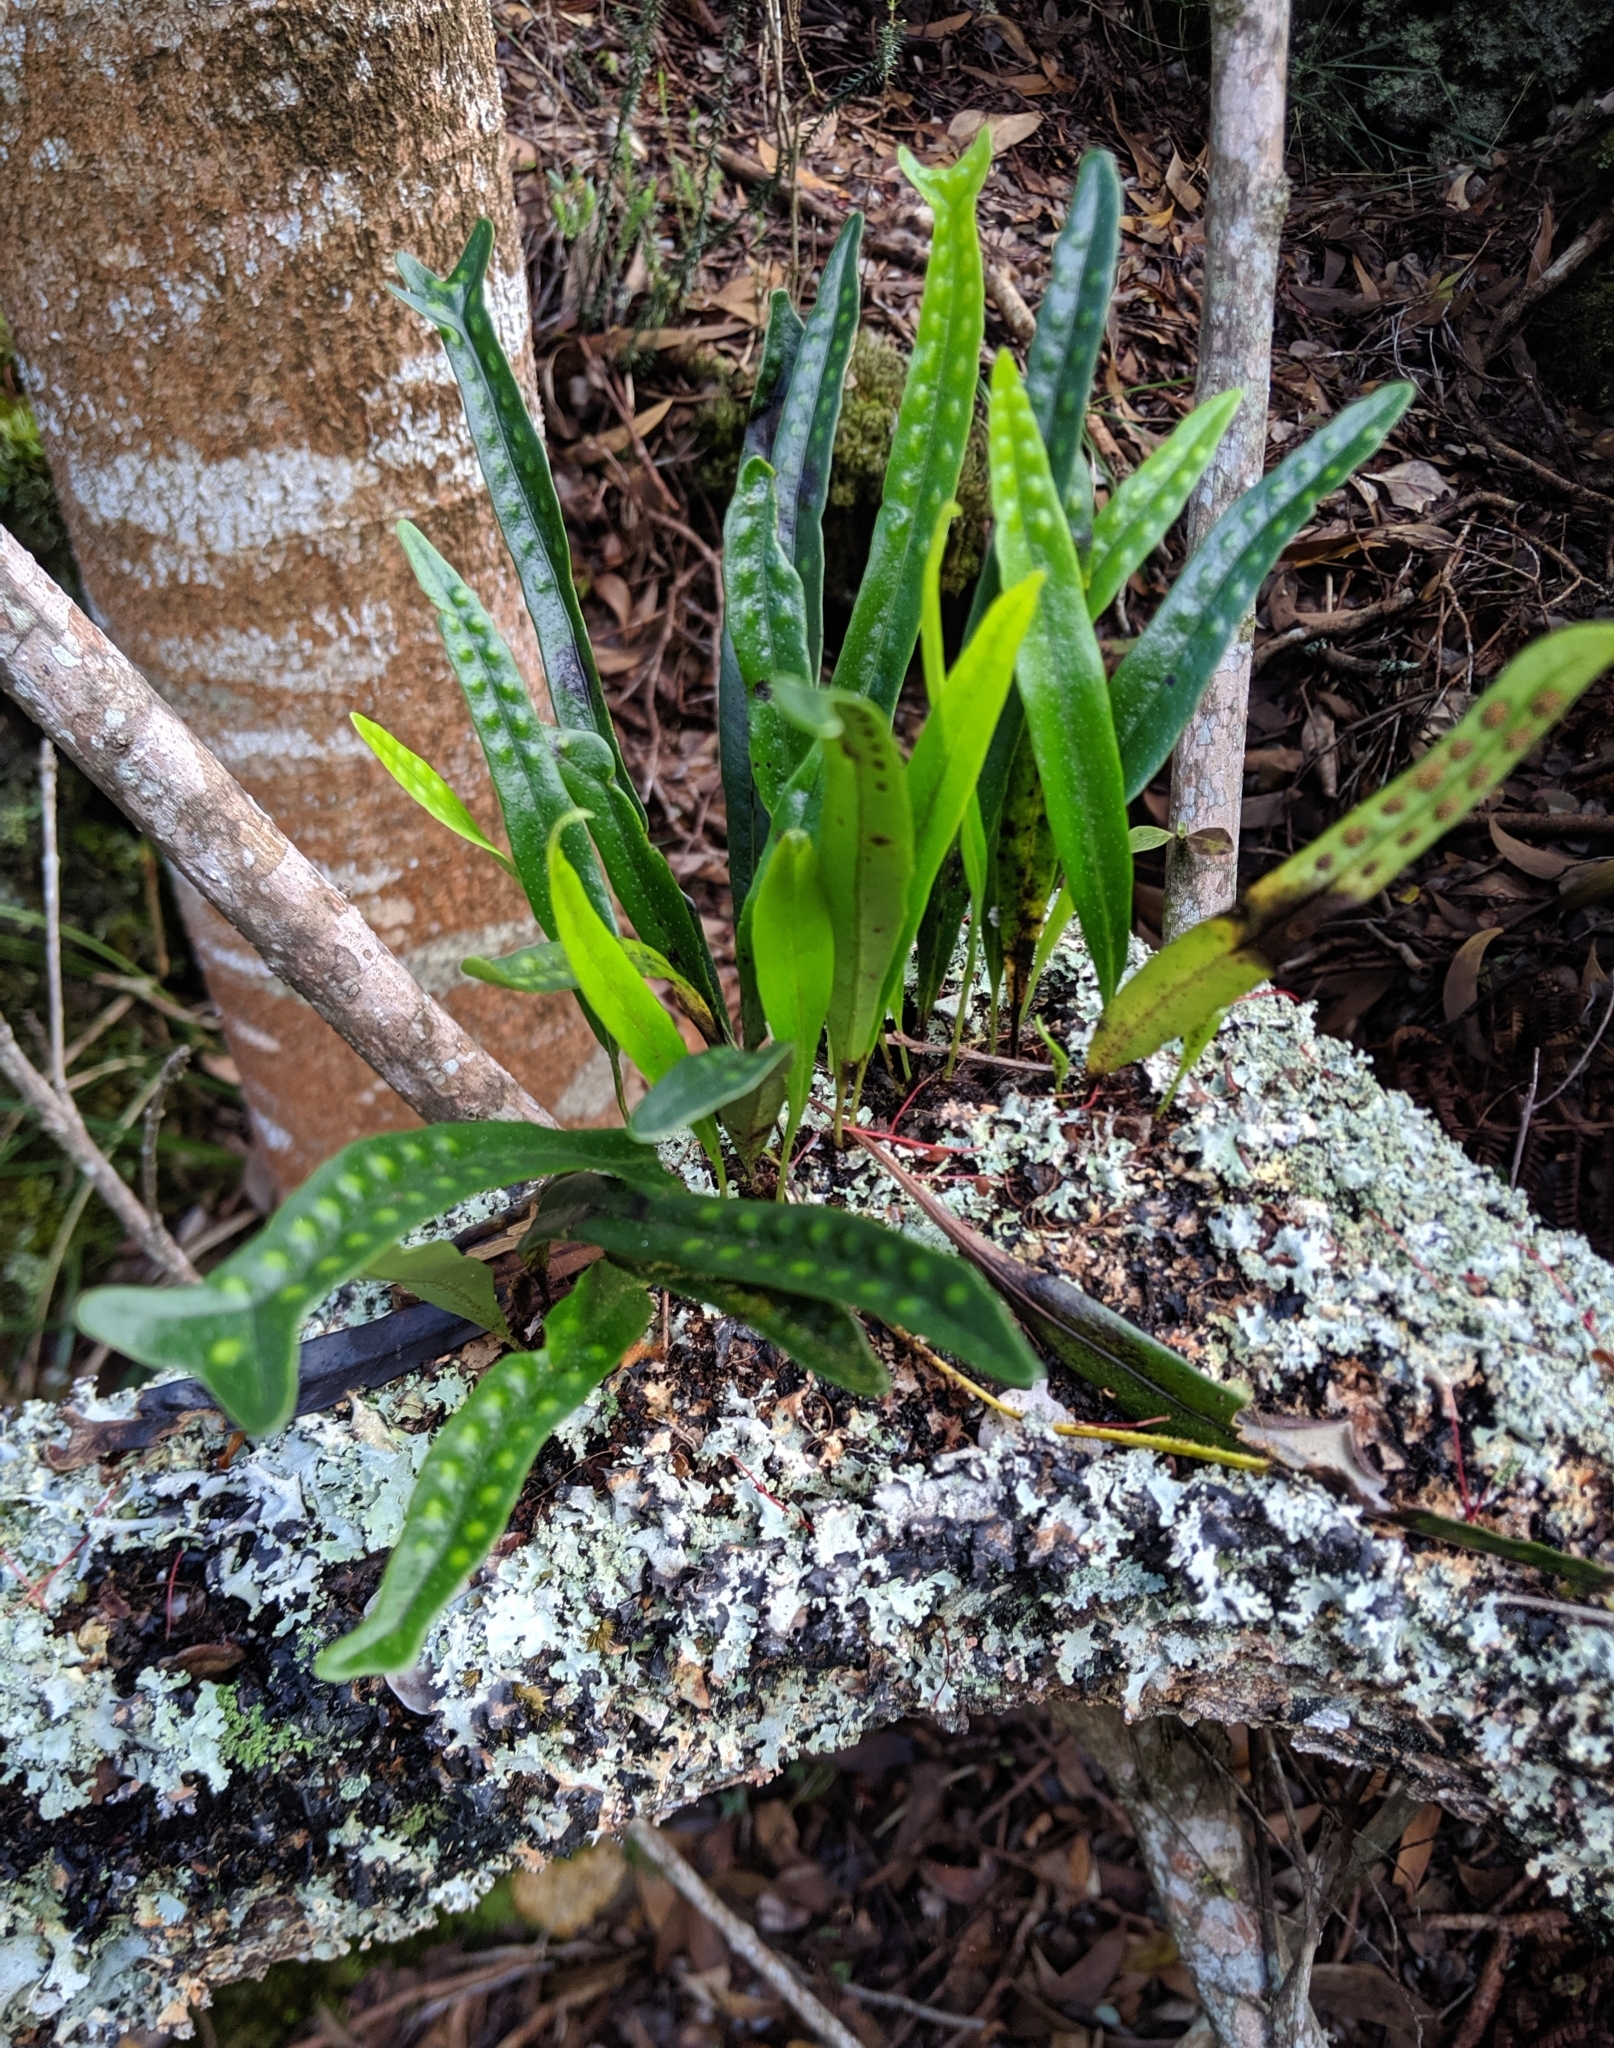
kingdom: Plantae
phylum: Tracheophyta
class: Polypodiopsida
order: Polypodiales
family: Polypodiaceae
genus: Lepisorus
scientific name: Lepisorus thunbergianus
